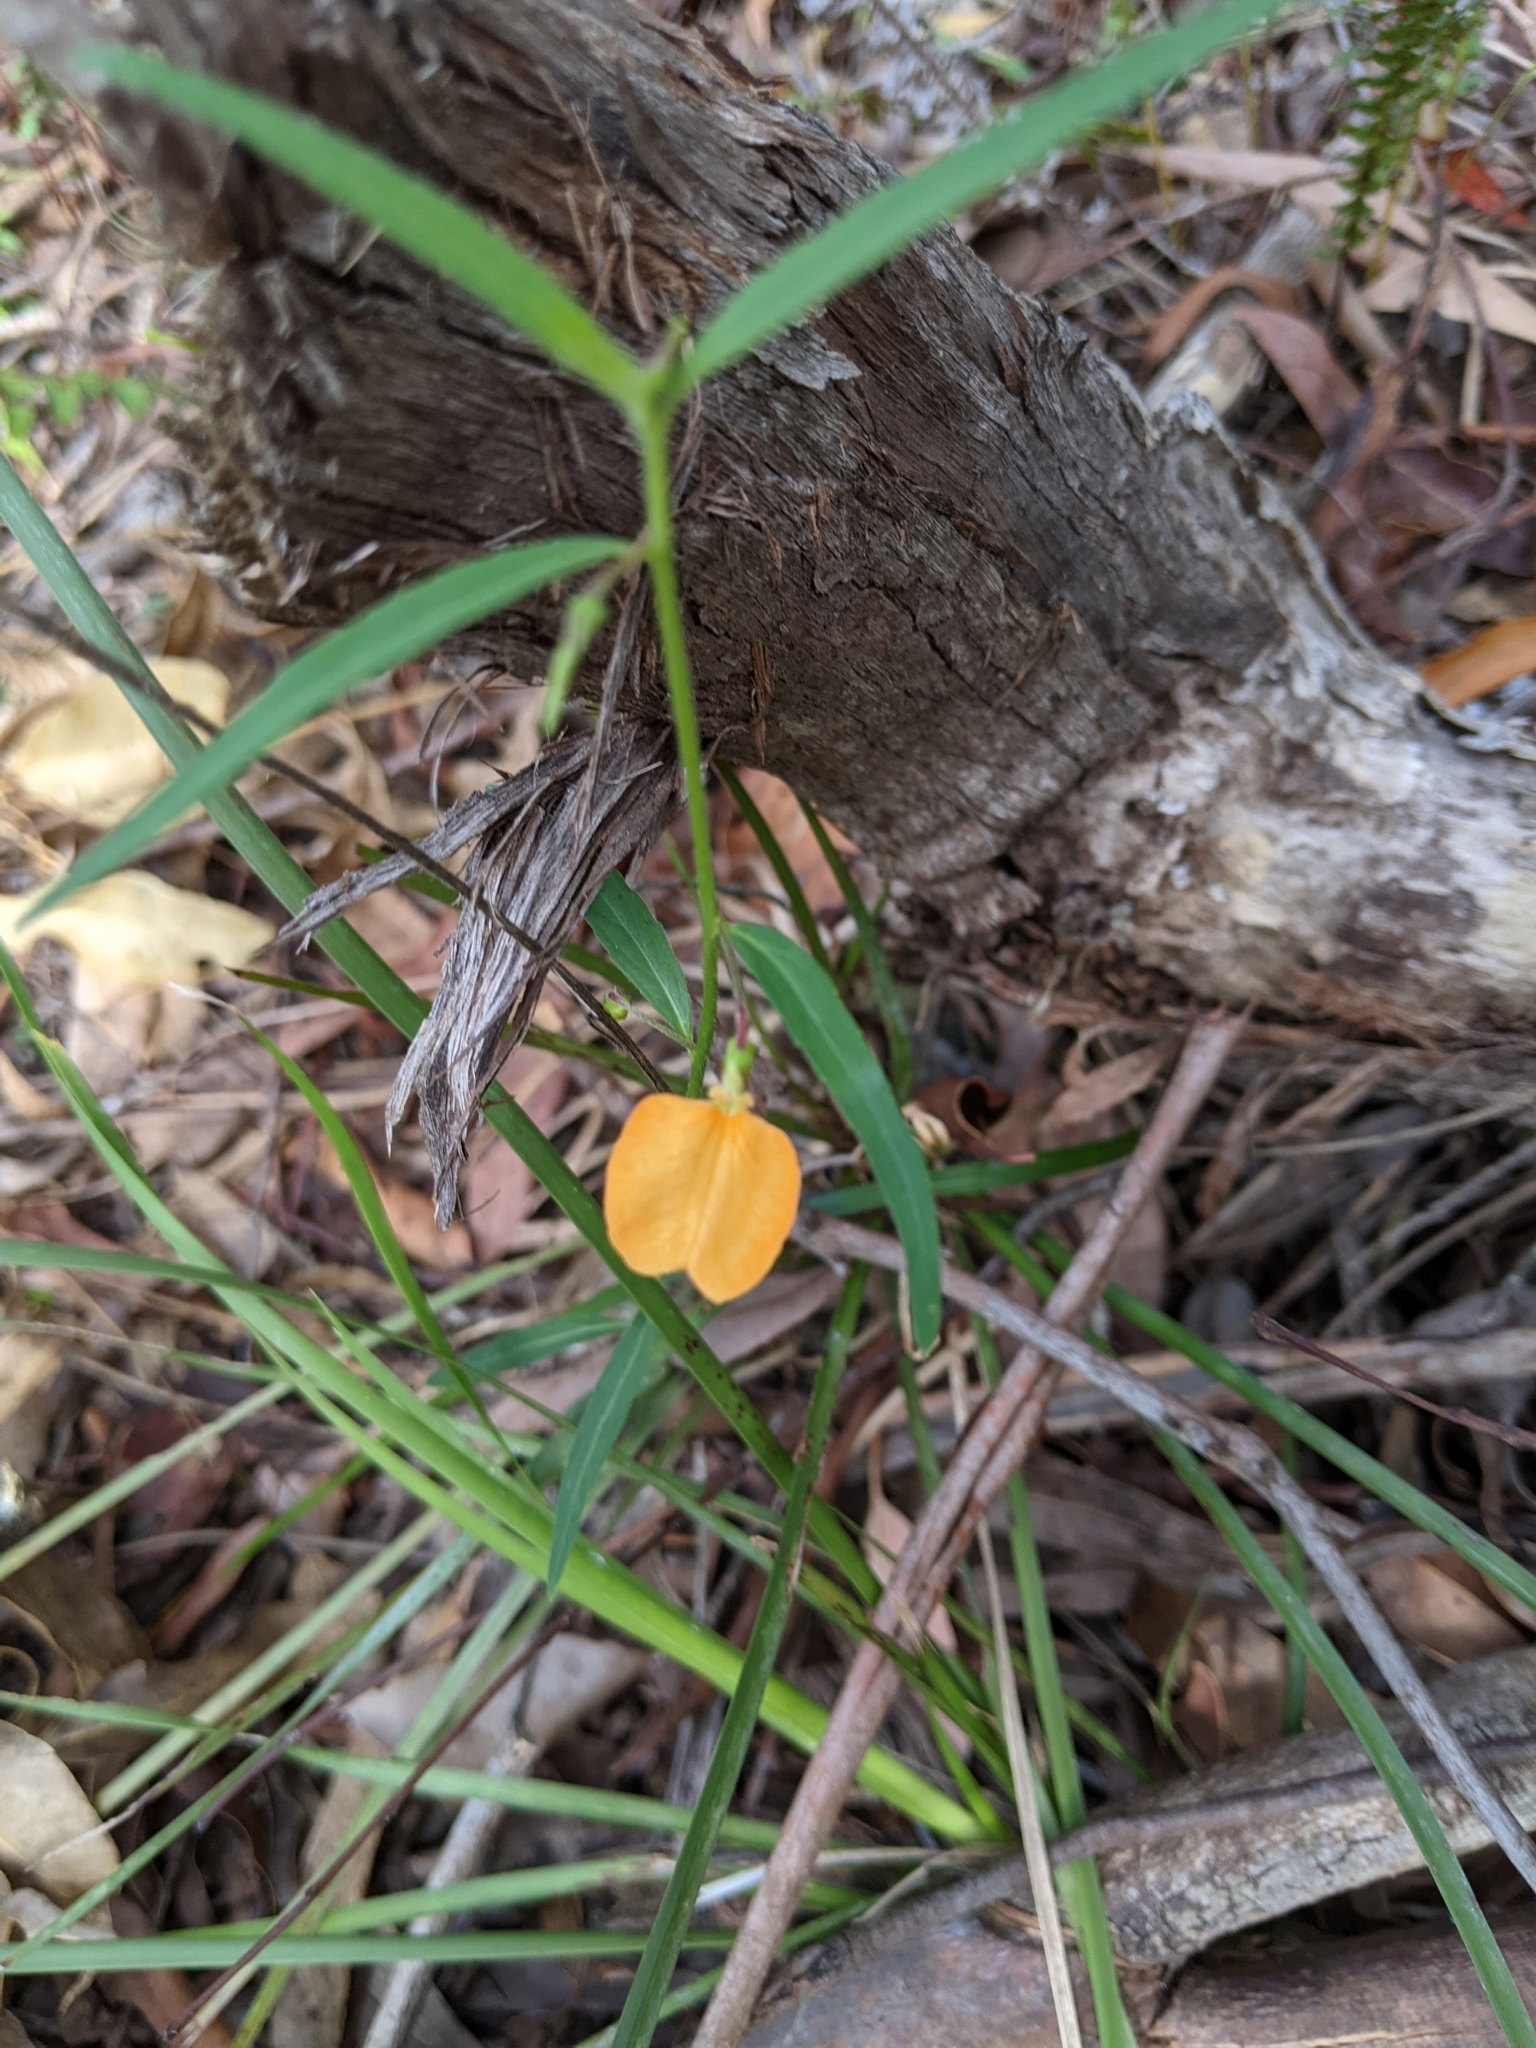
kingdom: Plantae
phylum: Tracheophyta
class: Magnoliopsida
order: Malpighiales
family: Violaceae
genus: Pigea
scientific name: Pigea stellarioides
